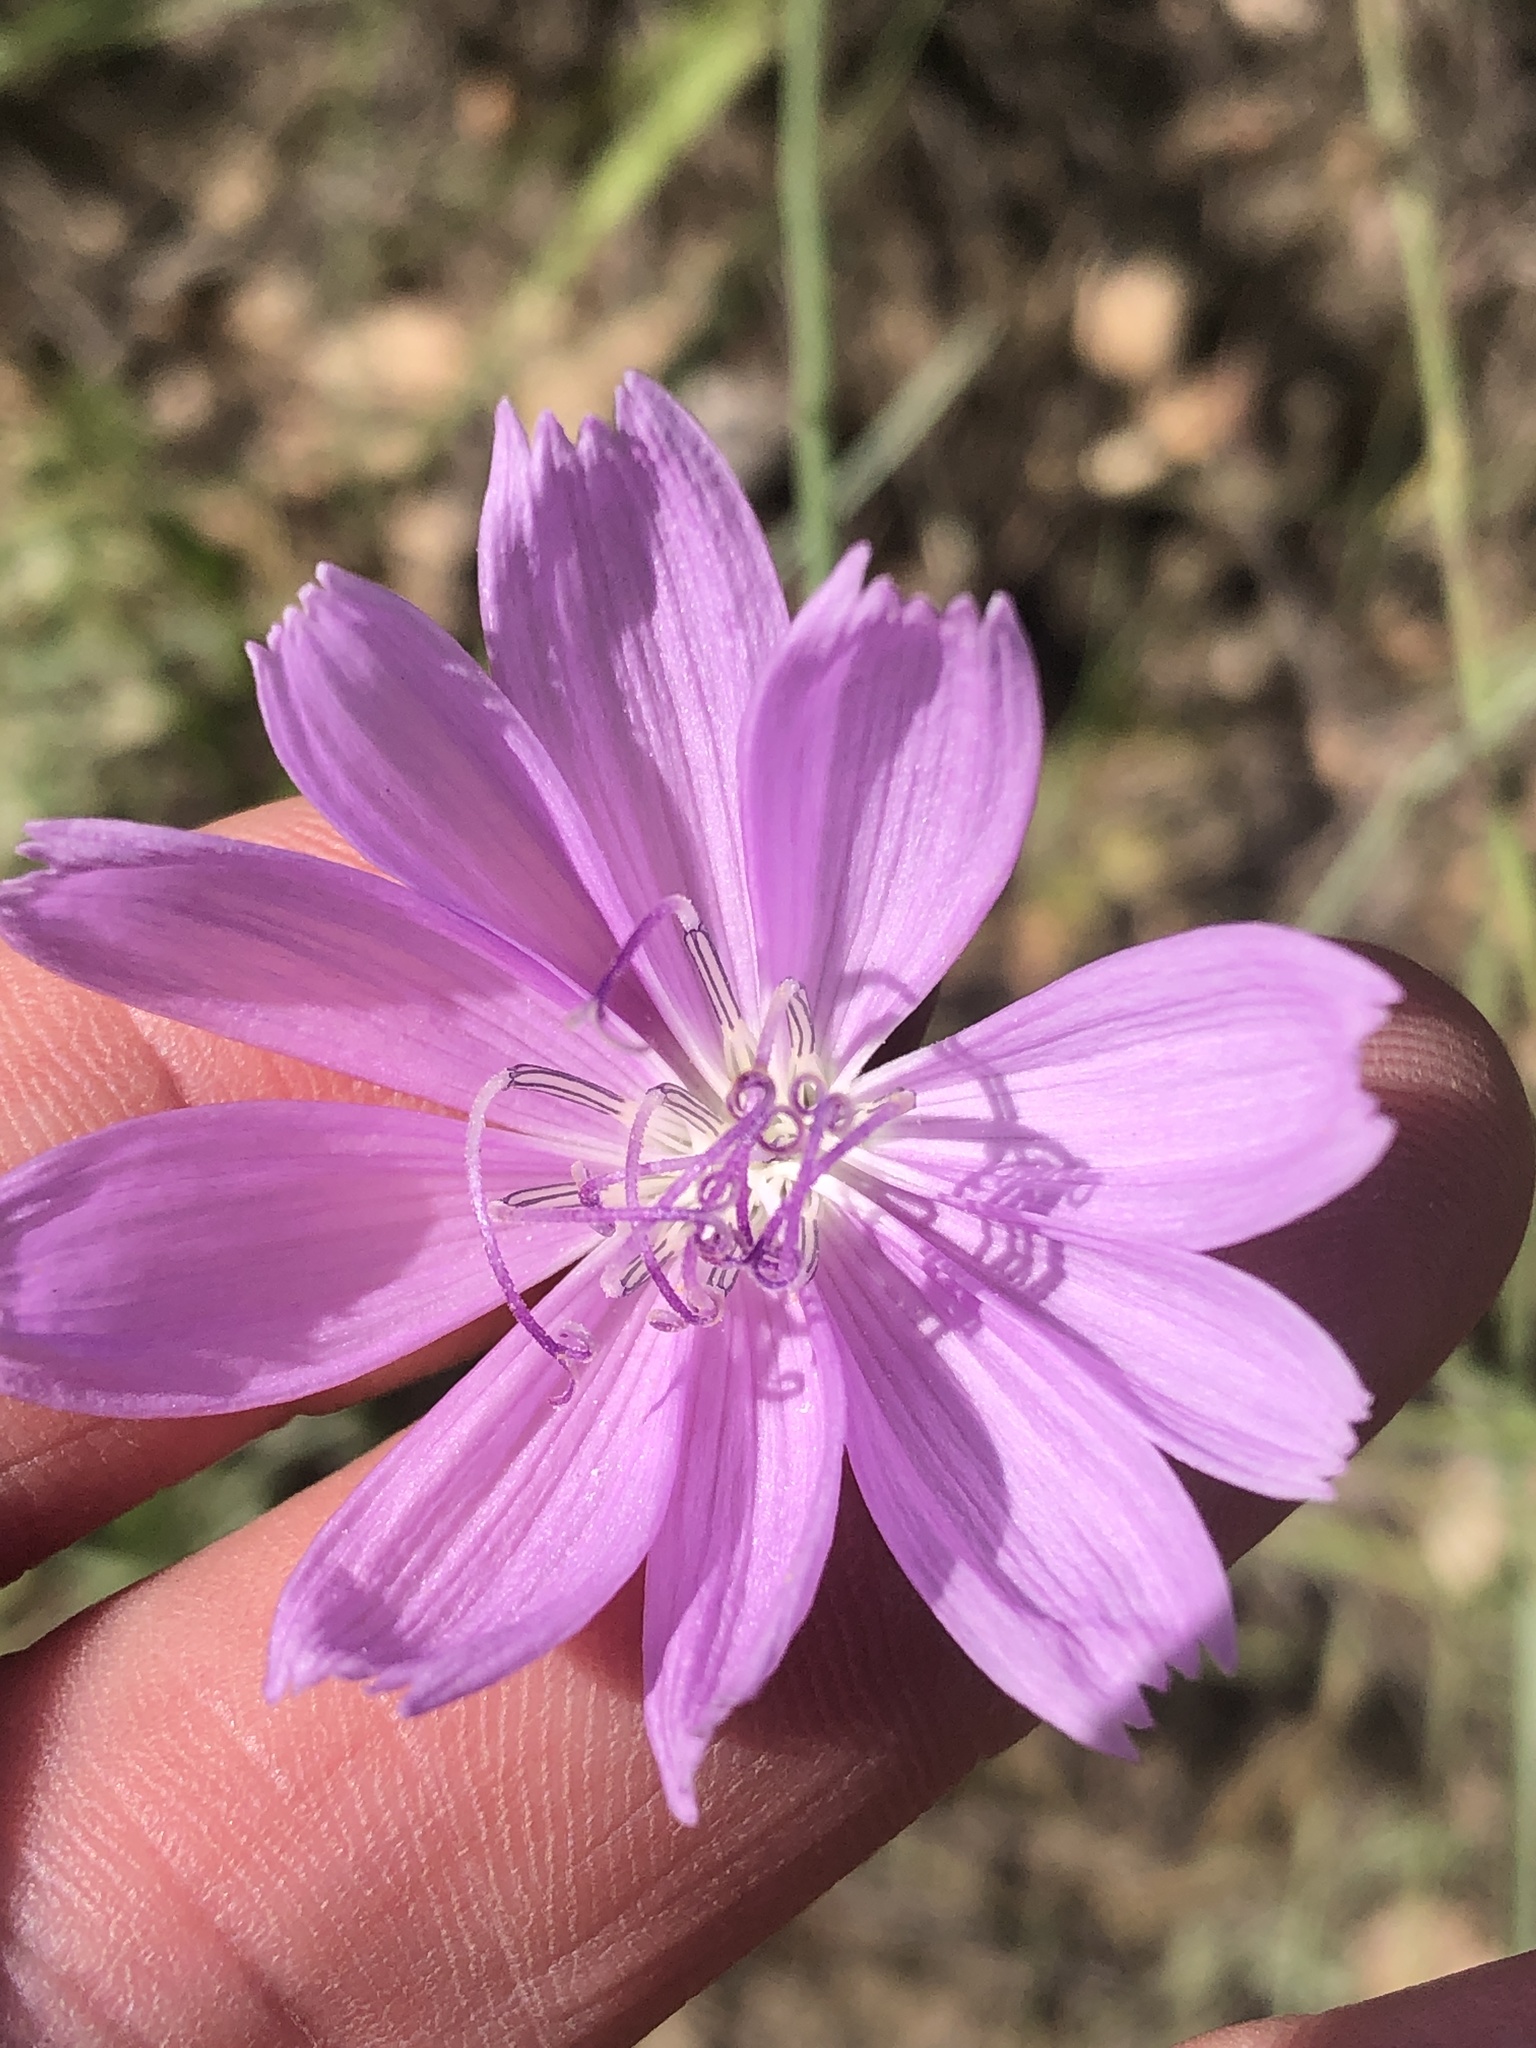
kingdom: Plantae
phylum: Tracheophyta
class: Magnoliopsida
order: Asterales
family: Asteraceae
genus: Lygodesmia
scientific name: Lygodesmia texana
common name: Texas skeleton-plant
